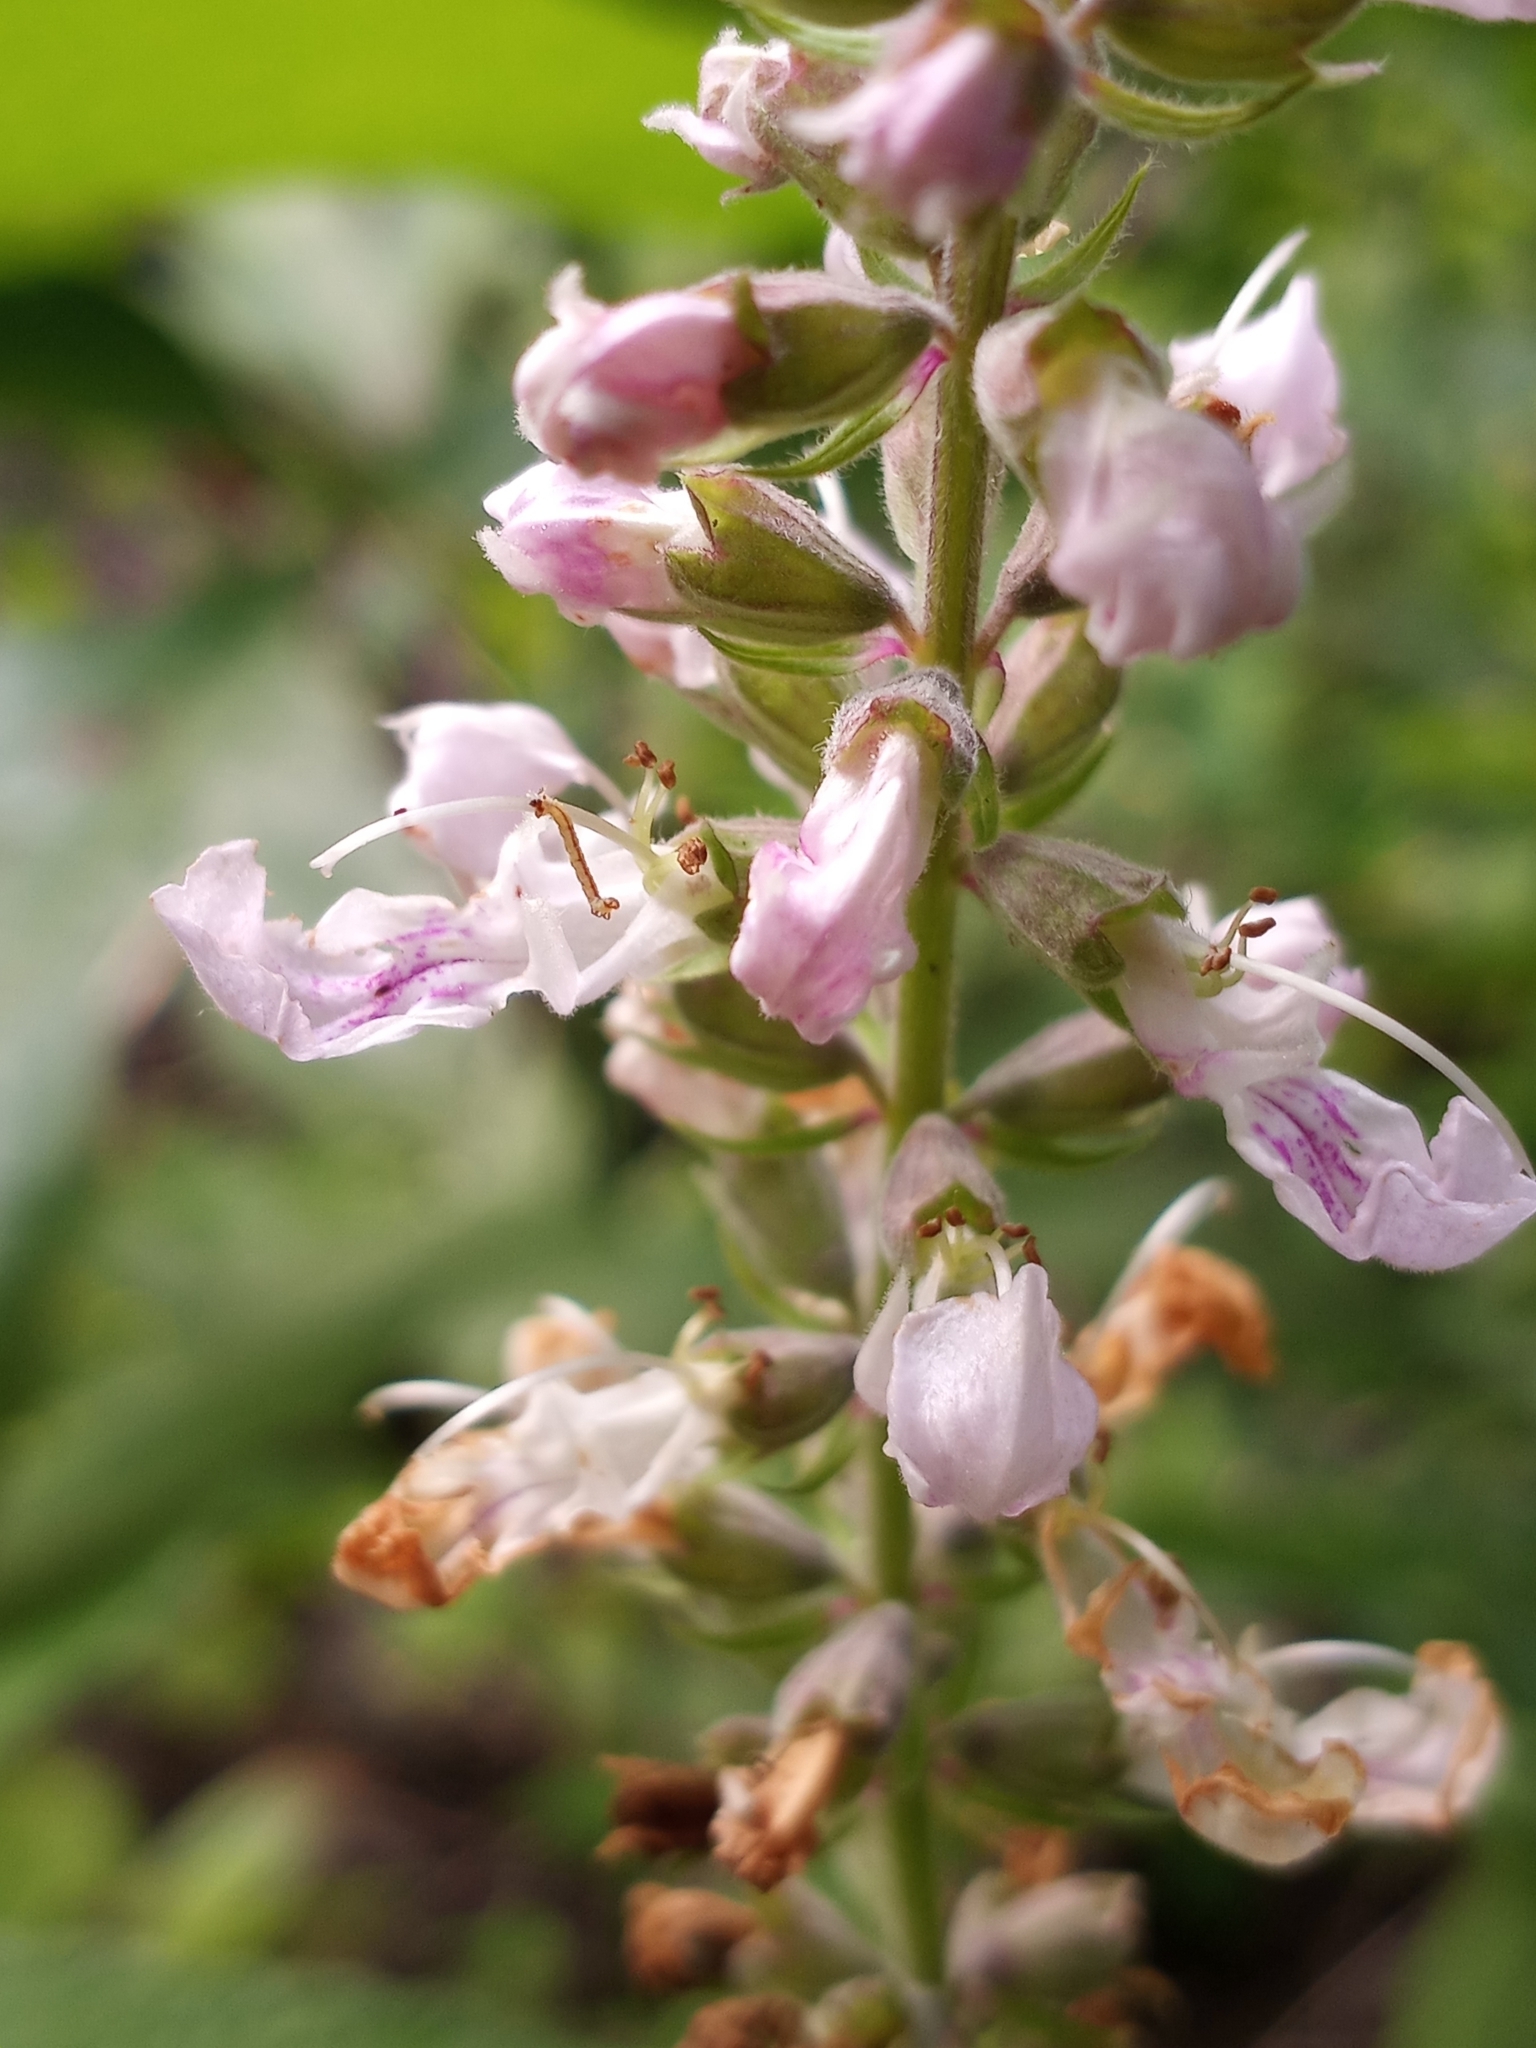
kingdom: Plantae
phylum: Tracheophyta
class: Magnoliopsida
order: Lamiales
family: Lamiaceae
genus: Teucrium
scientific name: Teucrium canadense
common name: American germander
